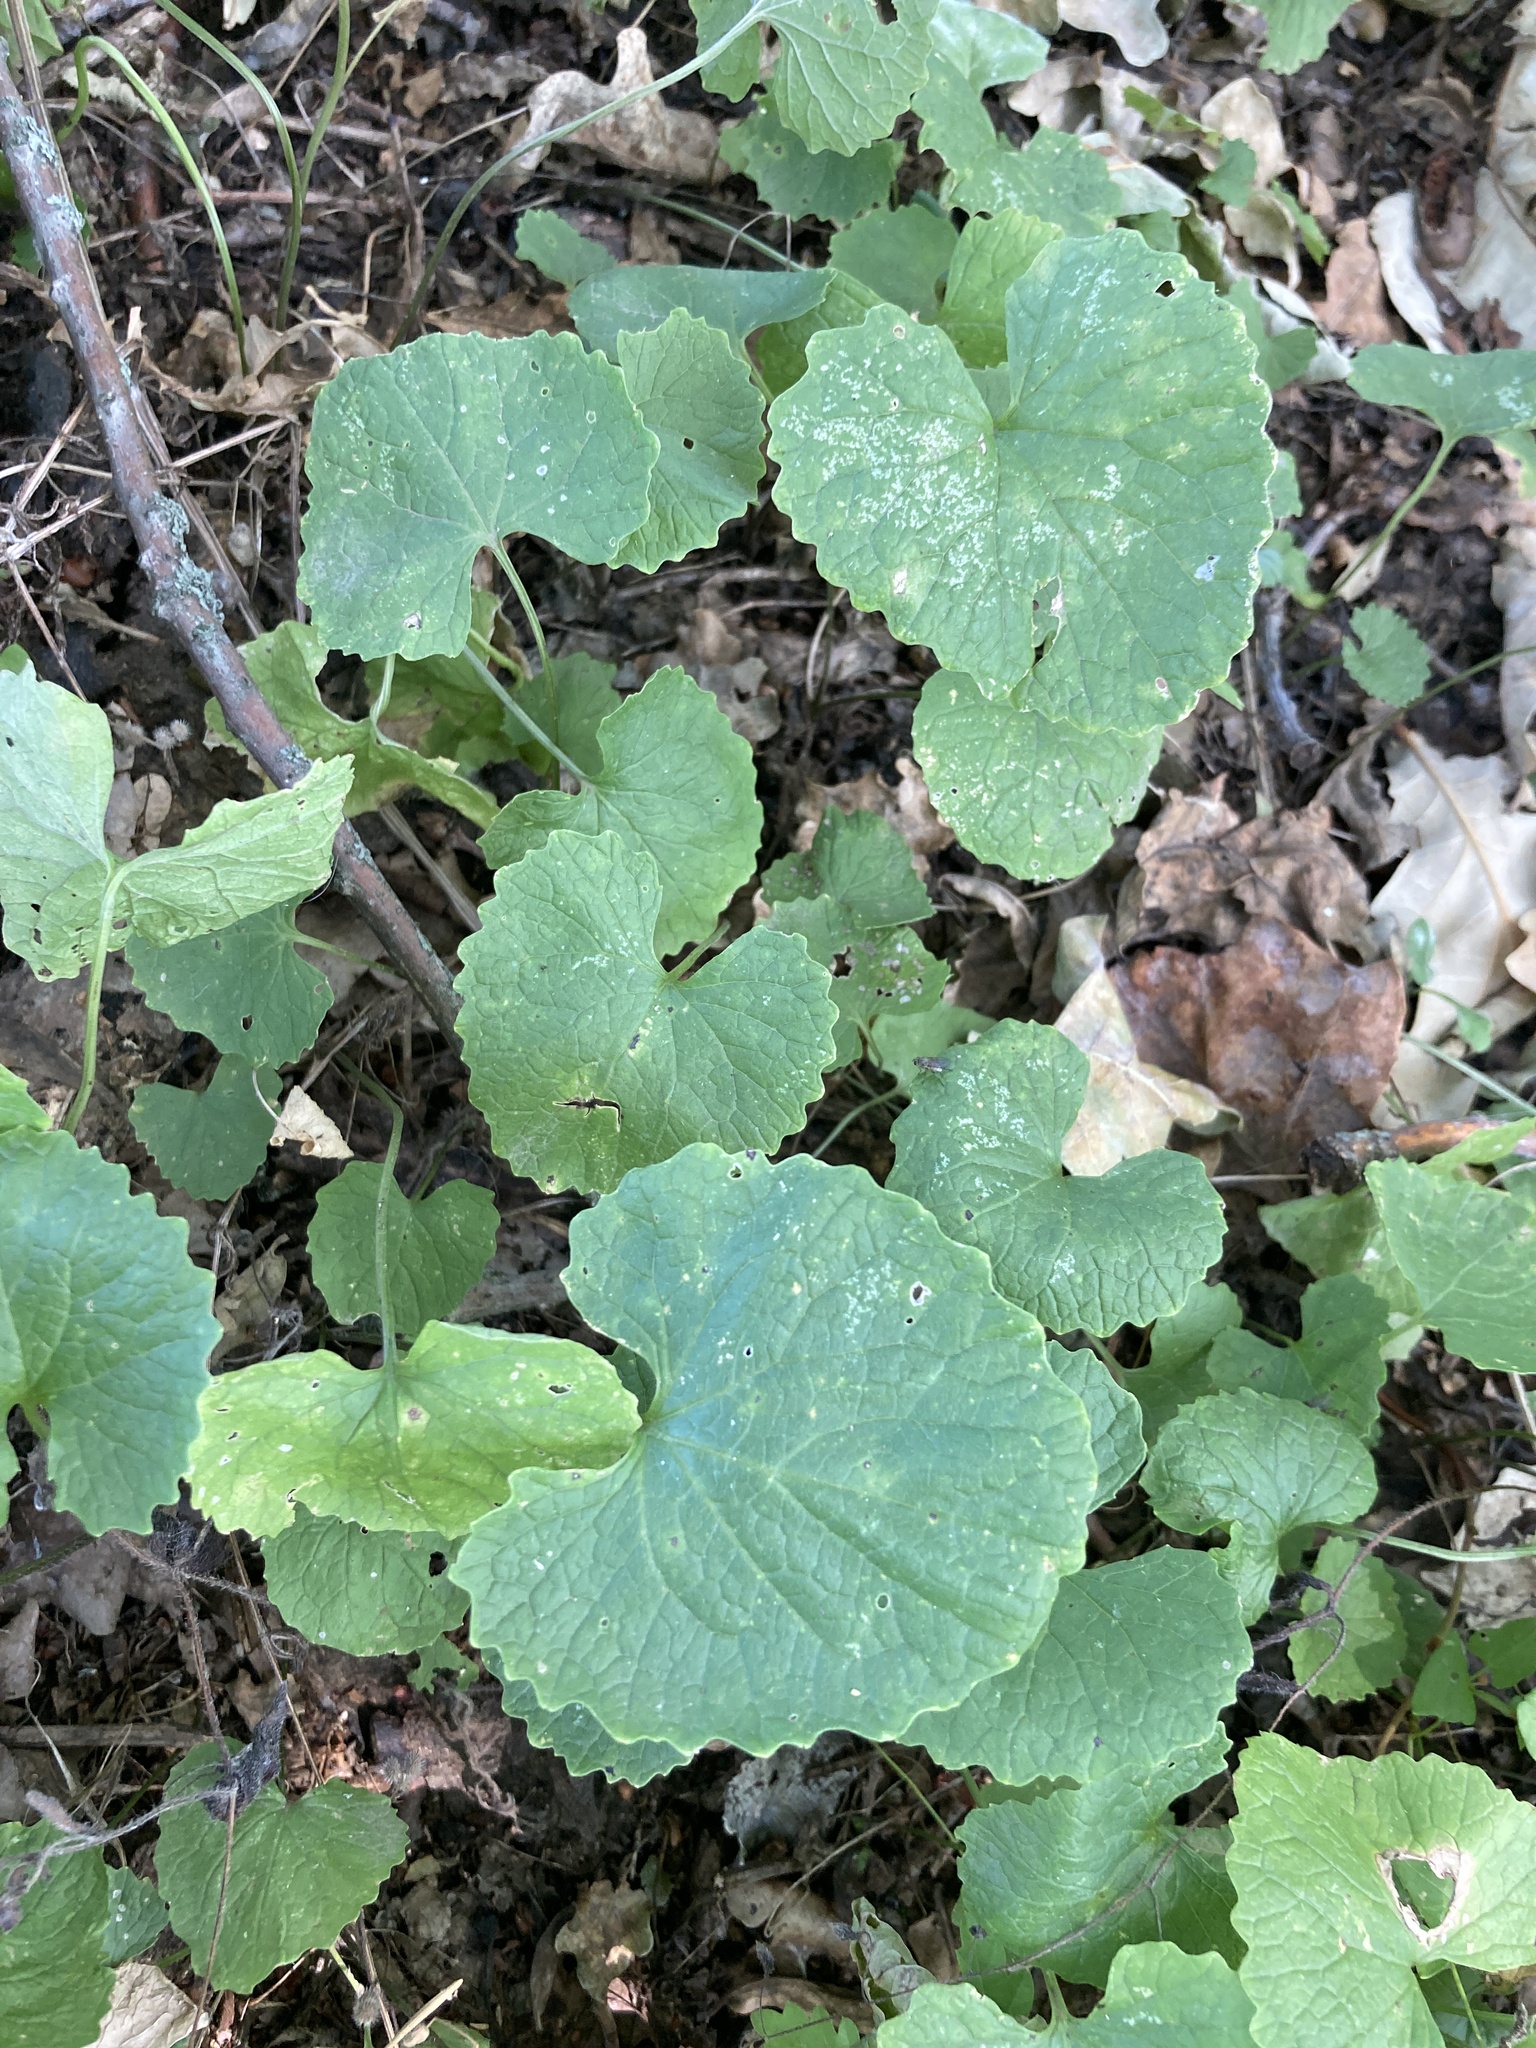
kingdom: Plantae
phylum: Tracheophyta
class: Magnoliopsida
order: Brassicales
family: Brassicaceae
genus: Alliaria
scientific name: Alliaria petiolata
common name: Garlic mustard
